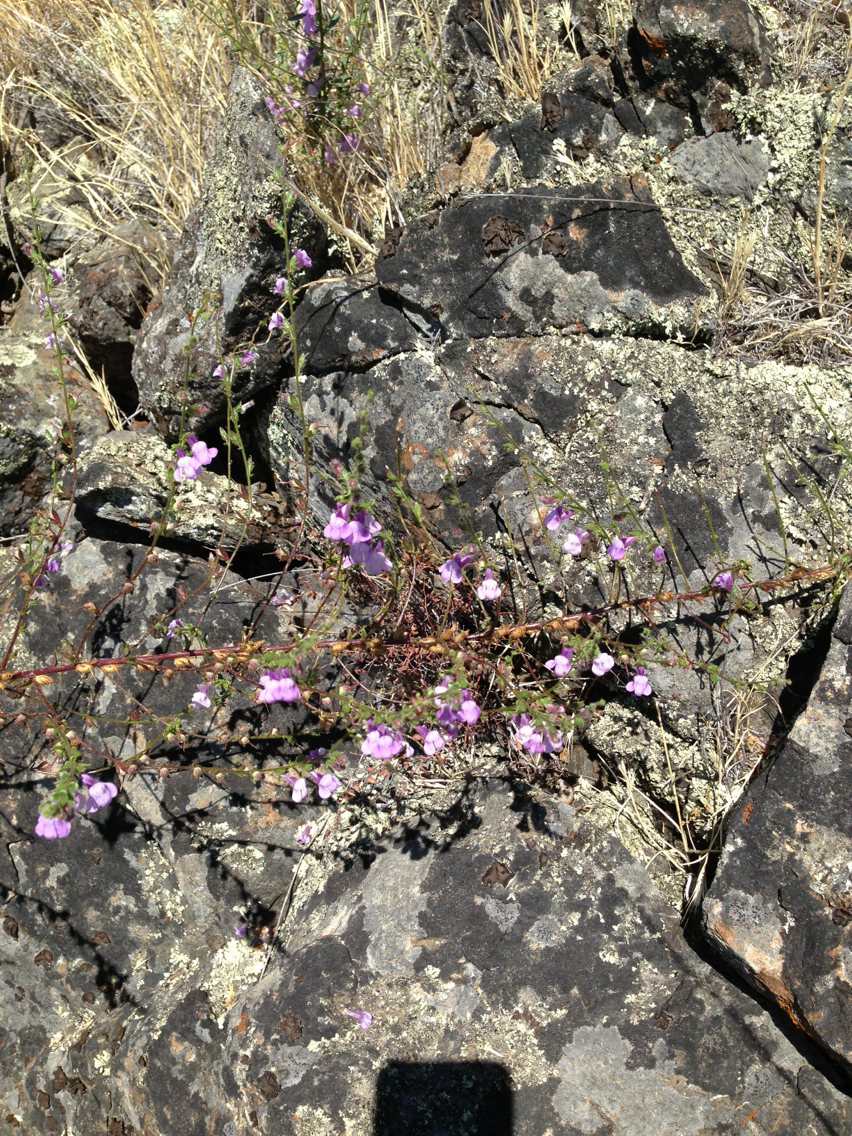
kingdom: Plantae
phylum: Tracheophyta
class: Magnoliopsida
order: Lamiales
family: Plantaginaceae
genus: Sairocarpus
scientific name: Sairocarpus vexillocalyculatus
